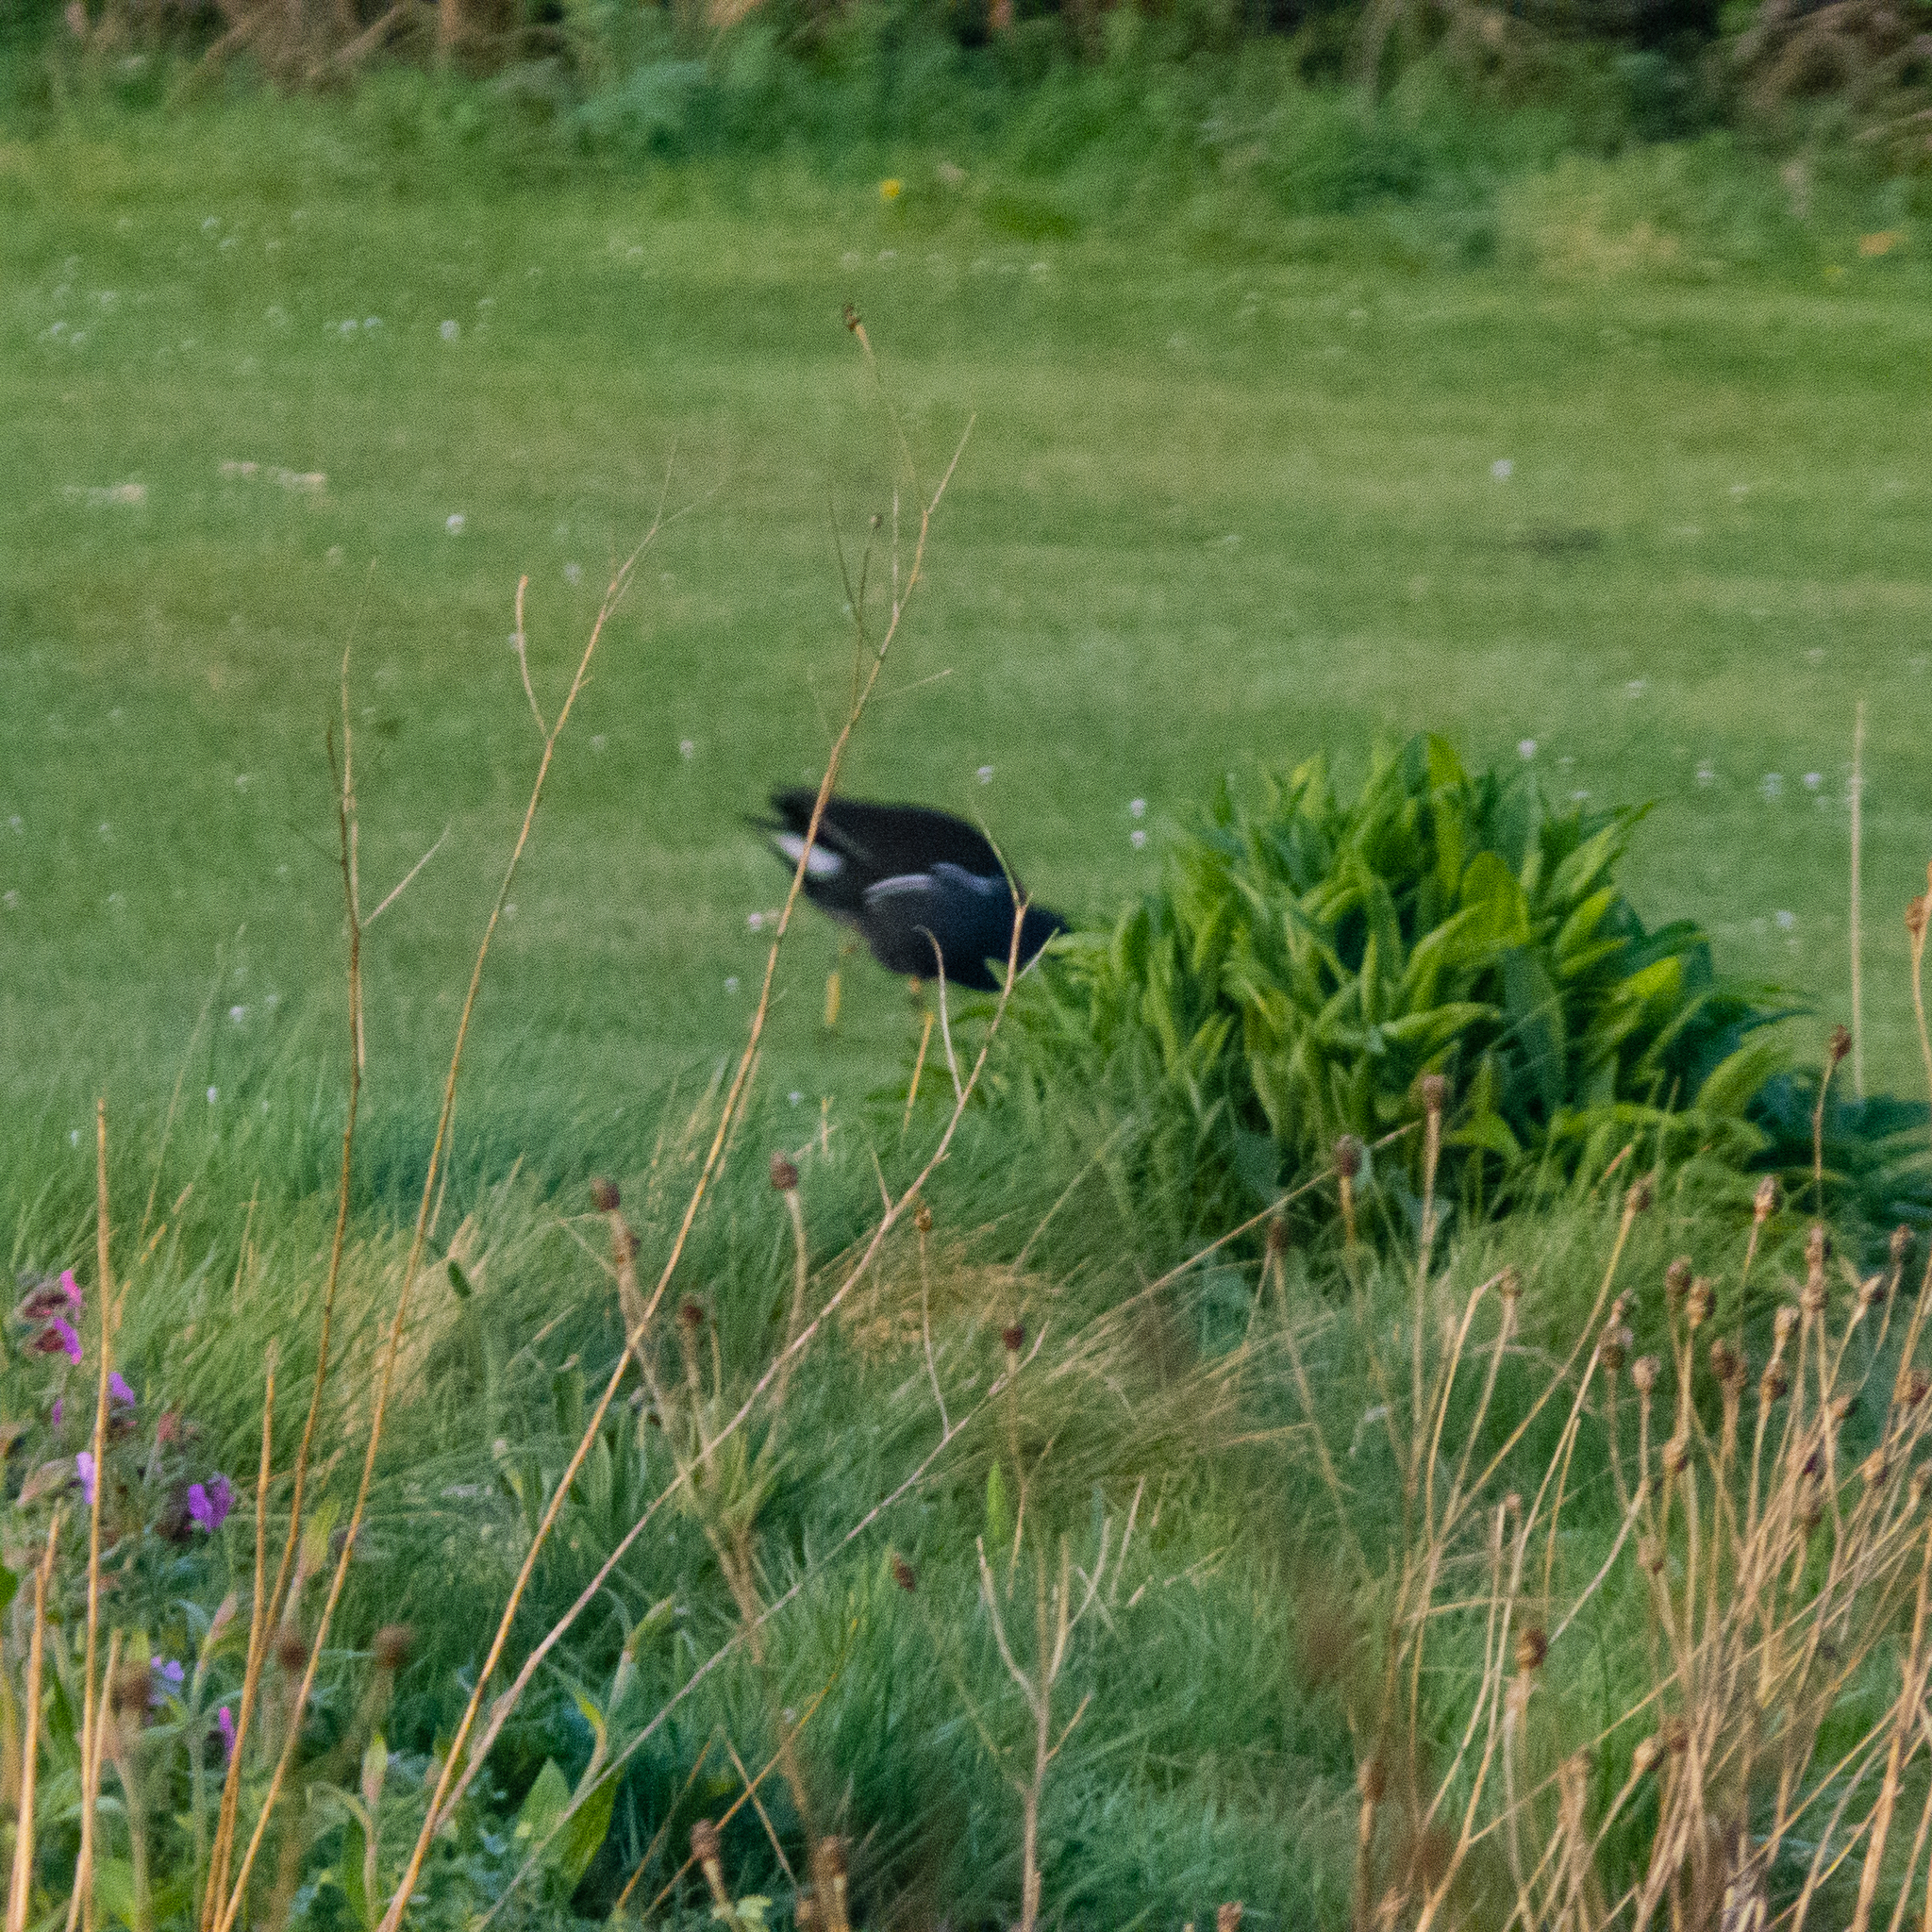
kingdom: Animalia
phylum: Chordata
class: Aves
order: Gruiformes
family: Rallidae
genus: Gallinula
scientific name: Gallinula chloropus
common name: Common moorhen
